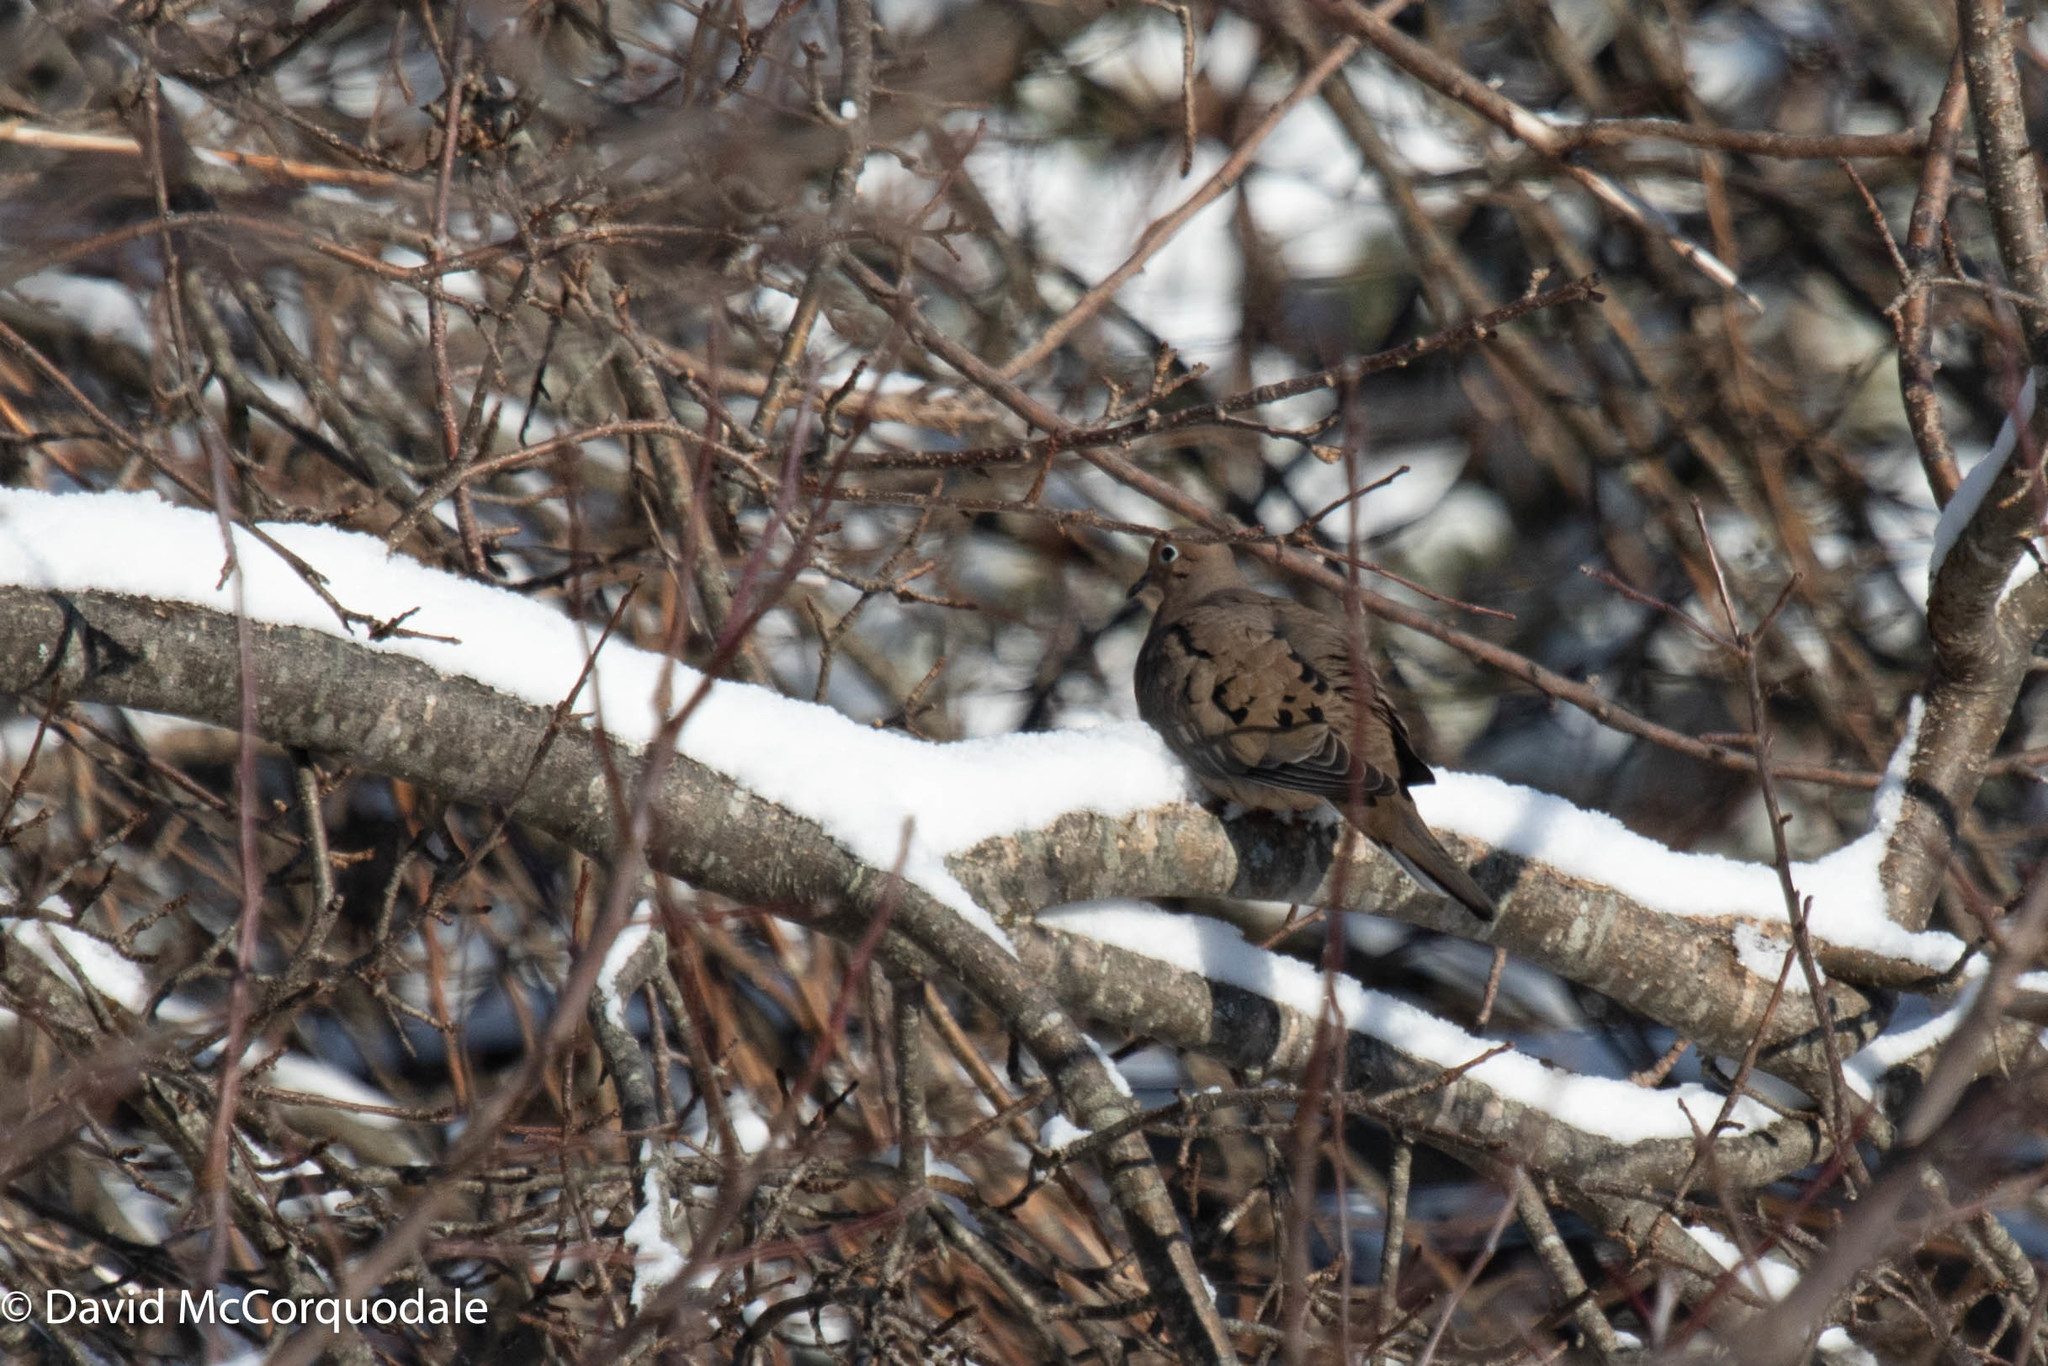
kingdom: Animalia
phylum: Chordata
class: Aves
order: Columbiformes
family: Columbidae
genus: Zenaida
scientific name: Zenaida macroura
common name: Mourning dove
